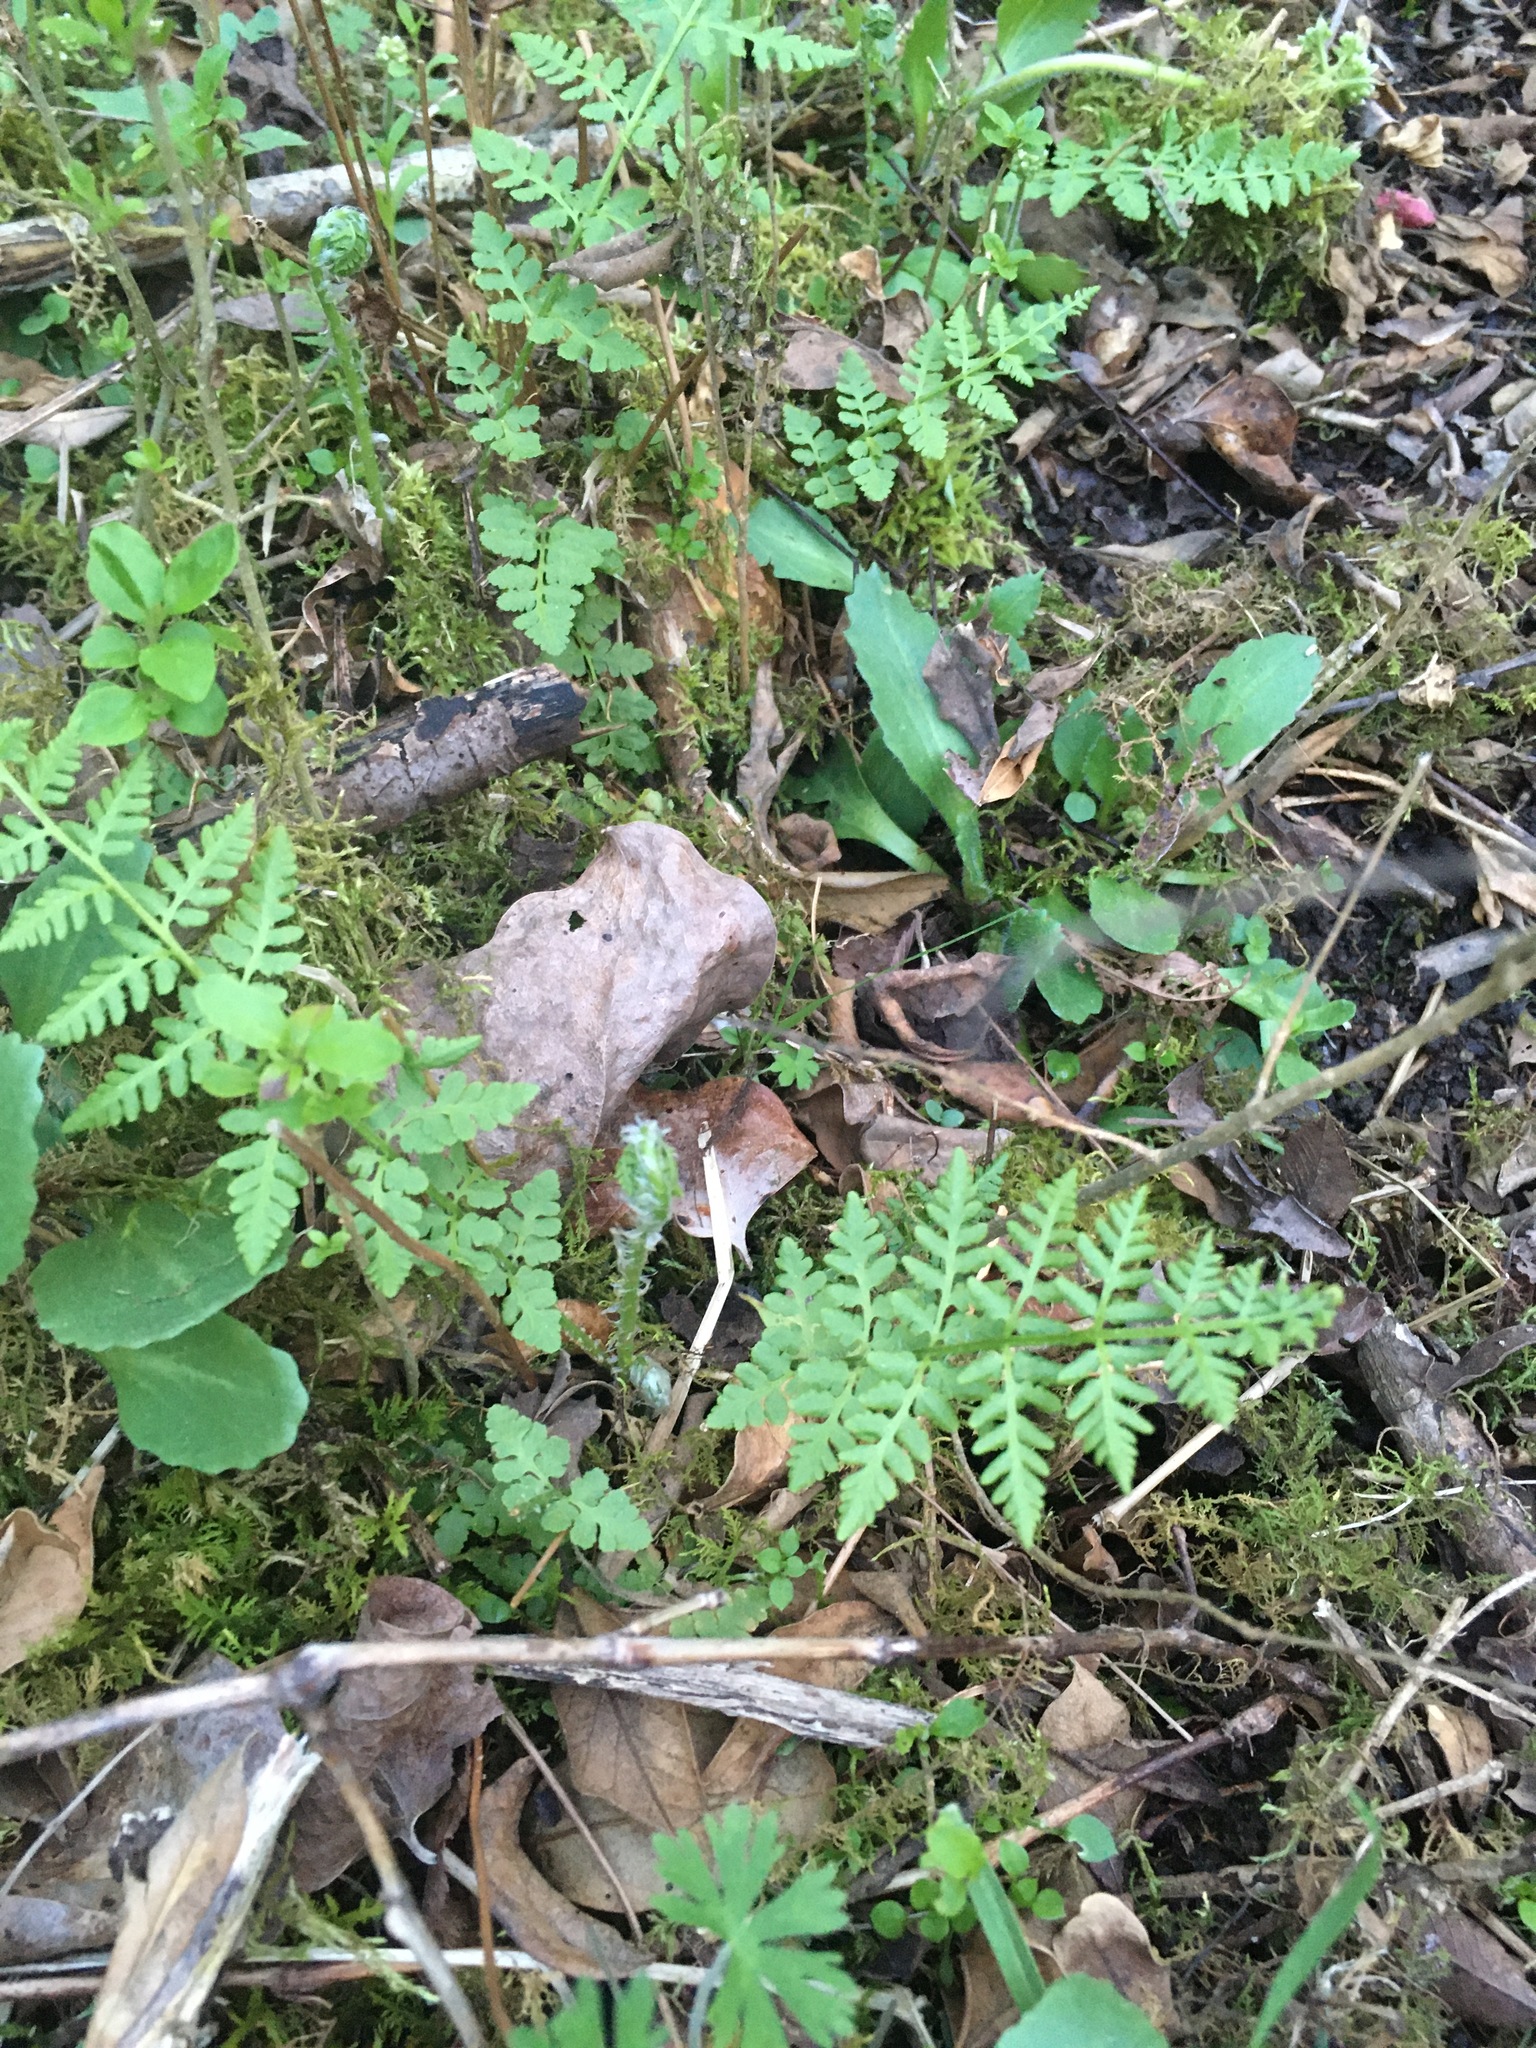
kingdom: Plantae
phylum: Tracheophyta
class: Polypodiopsida
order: Polypodiales
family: Woodsiaceae
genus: Physematium
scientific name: Physematium obtusum
